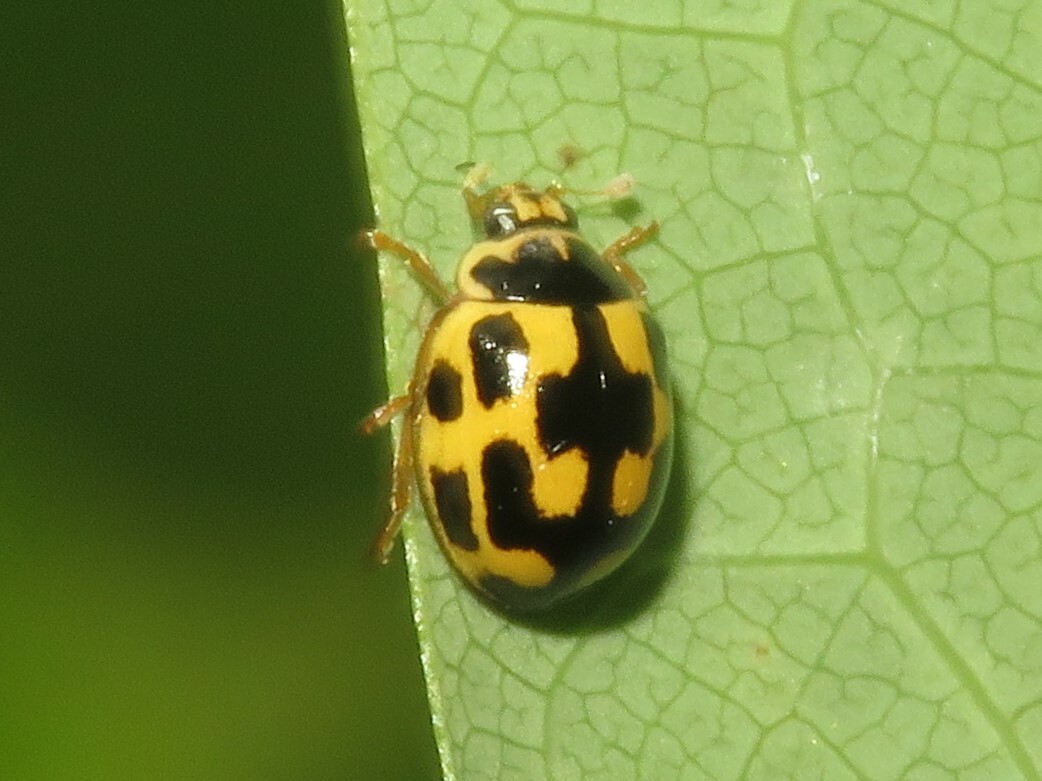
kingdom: Animalia
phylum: Arthropoda
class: Insecta
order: Coleoptera
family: Coccinellidae
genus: Propylaea
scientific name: Propylaea quatuordecimpunctata
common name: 14-spotted ladybird beetle
